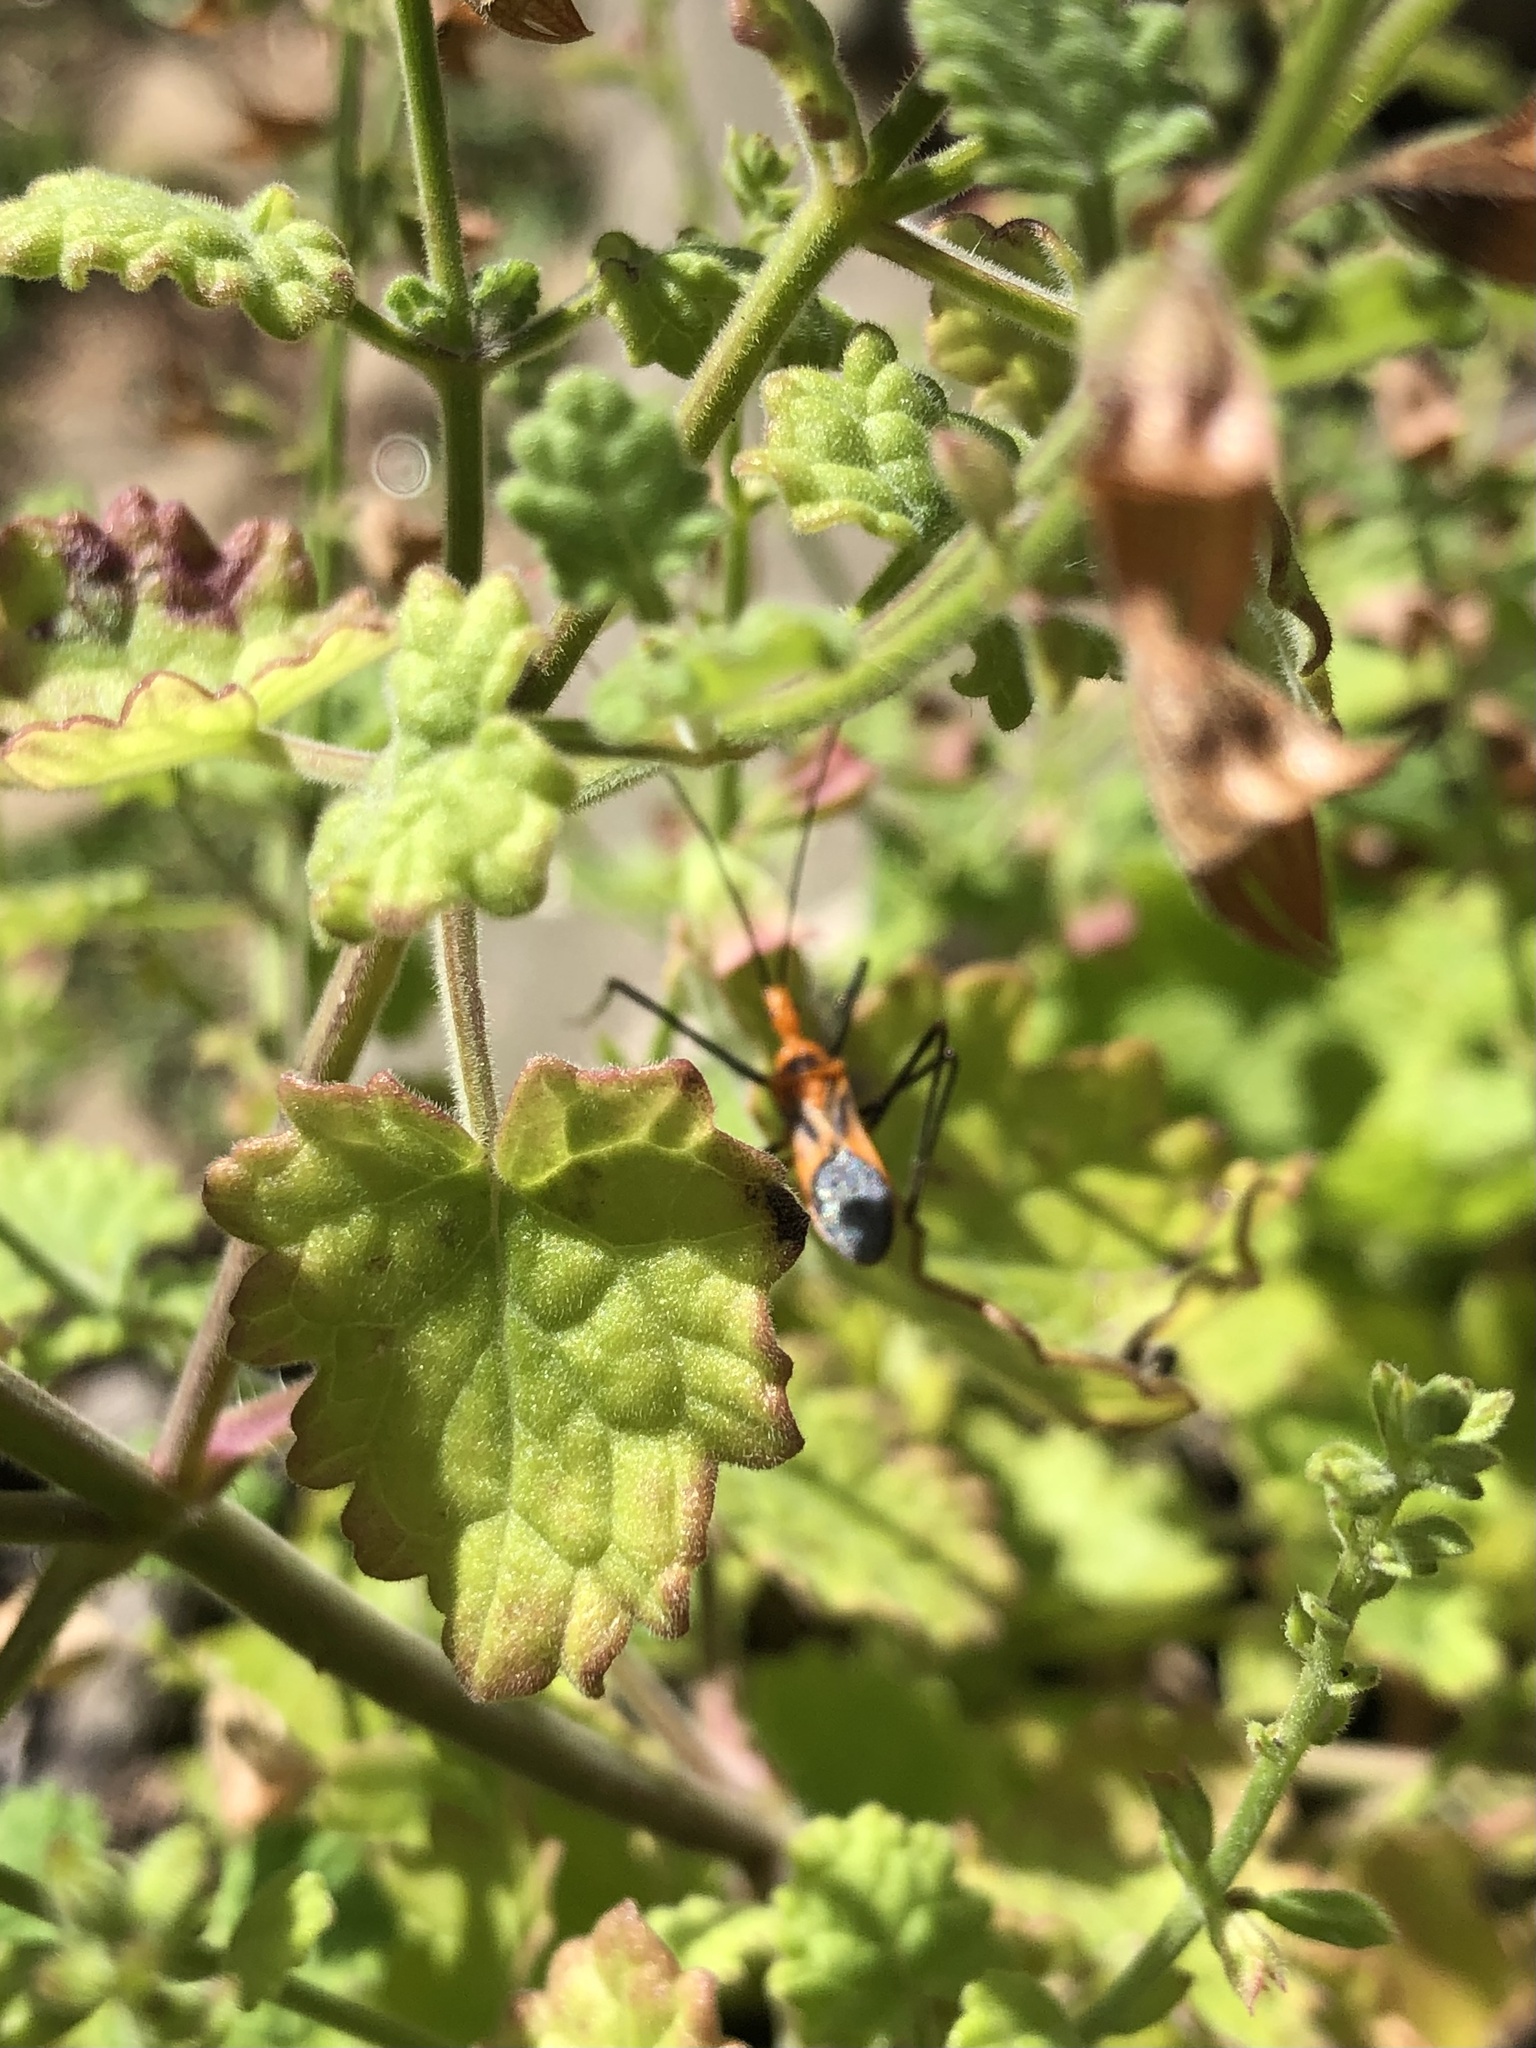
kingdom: Animalia
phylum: Arthropoda
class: Insecta
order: Hemiptera
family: Reduviidae
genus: Zelus
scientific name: Zelus longipes
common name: Milkweed assassin bug
